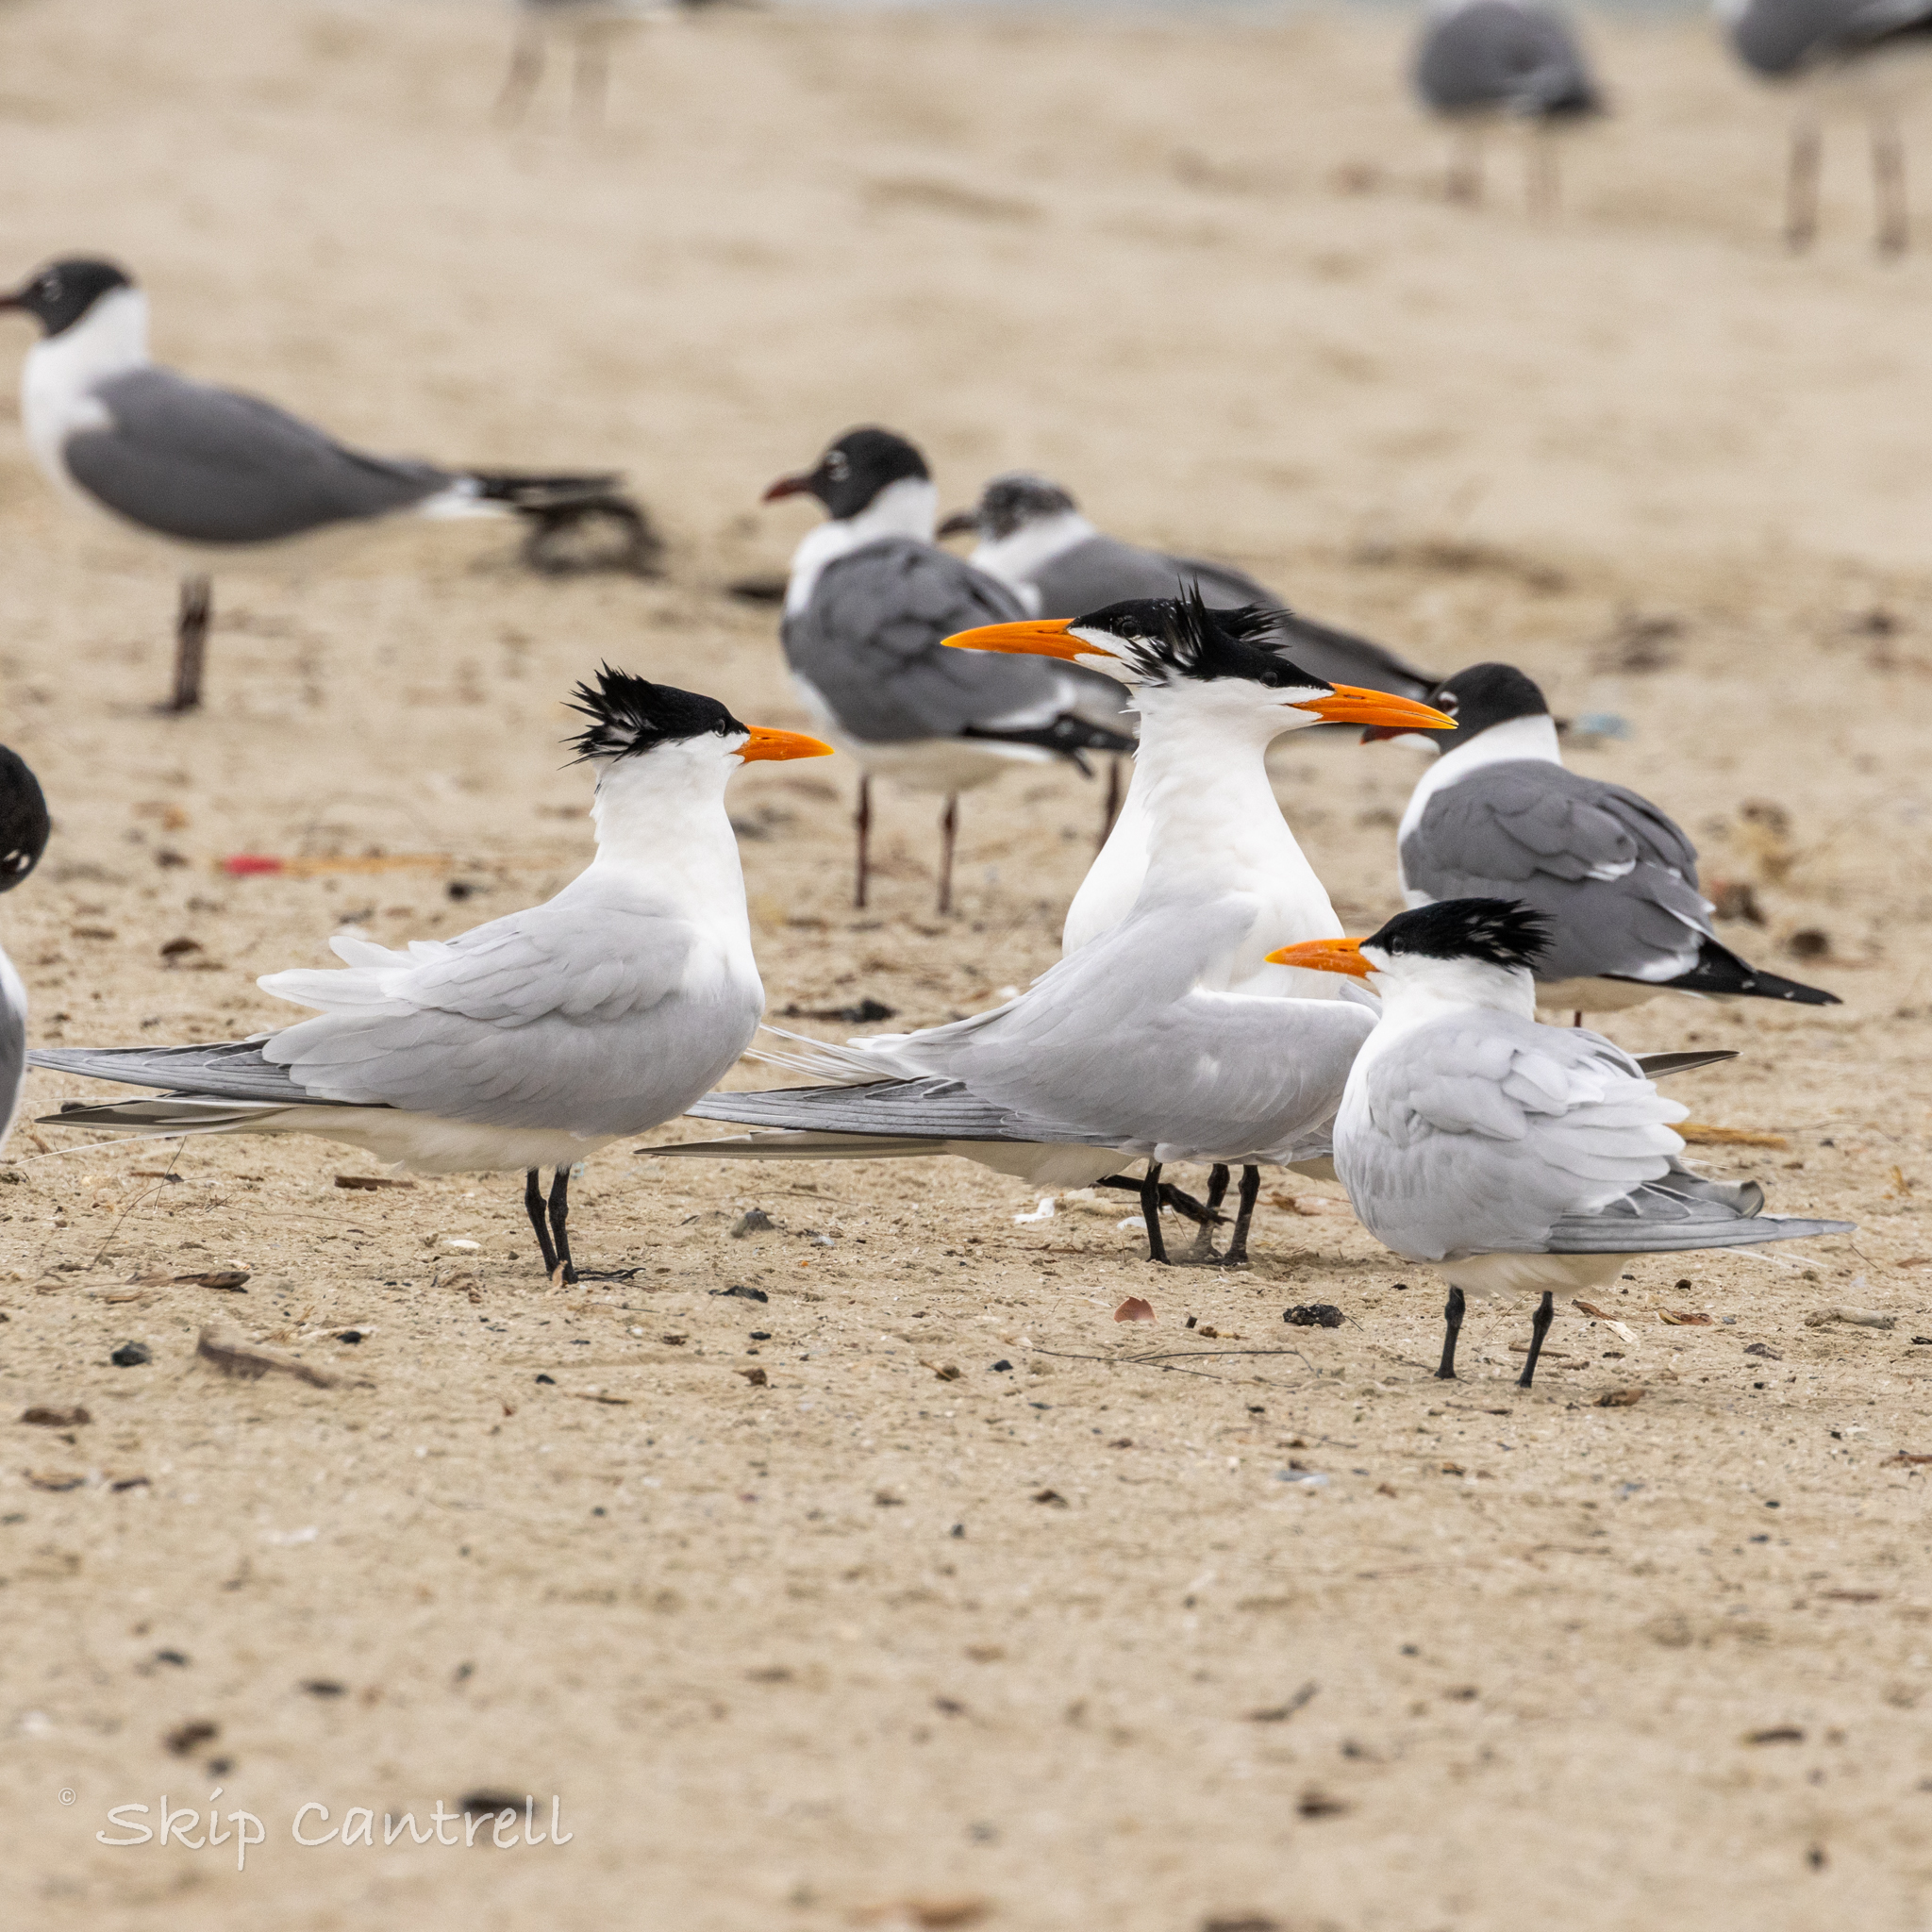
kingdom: Animalia
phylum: Chordata
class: Aves
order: Charadriiformes
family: Laridae
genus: Thalasseus
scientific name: Thalasseus maximus
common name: Royal tern
